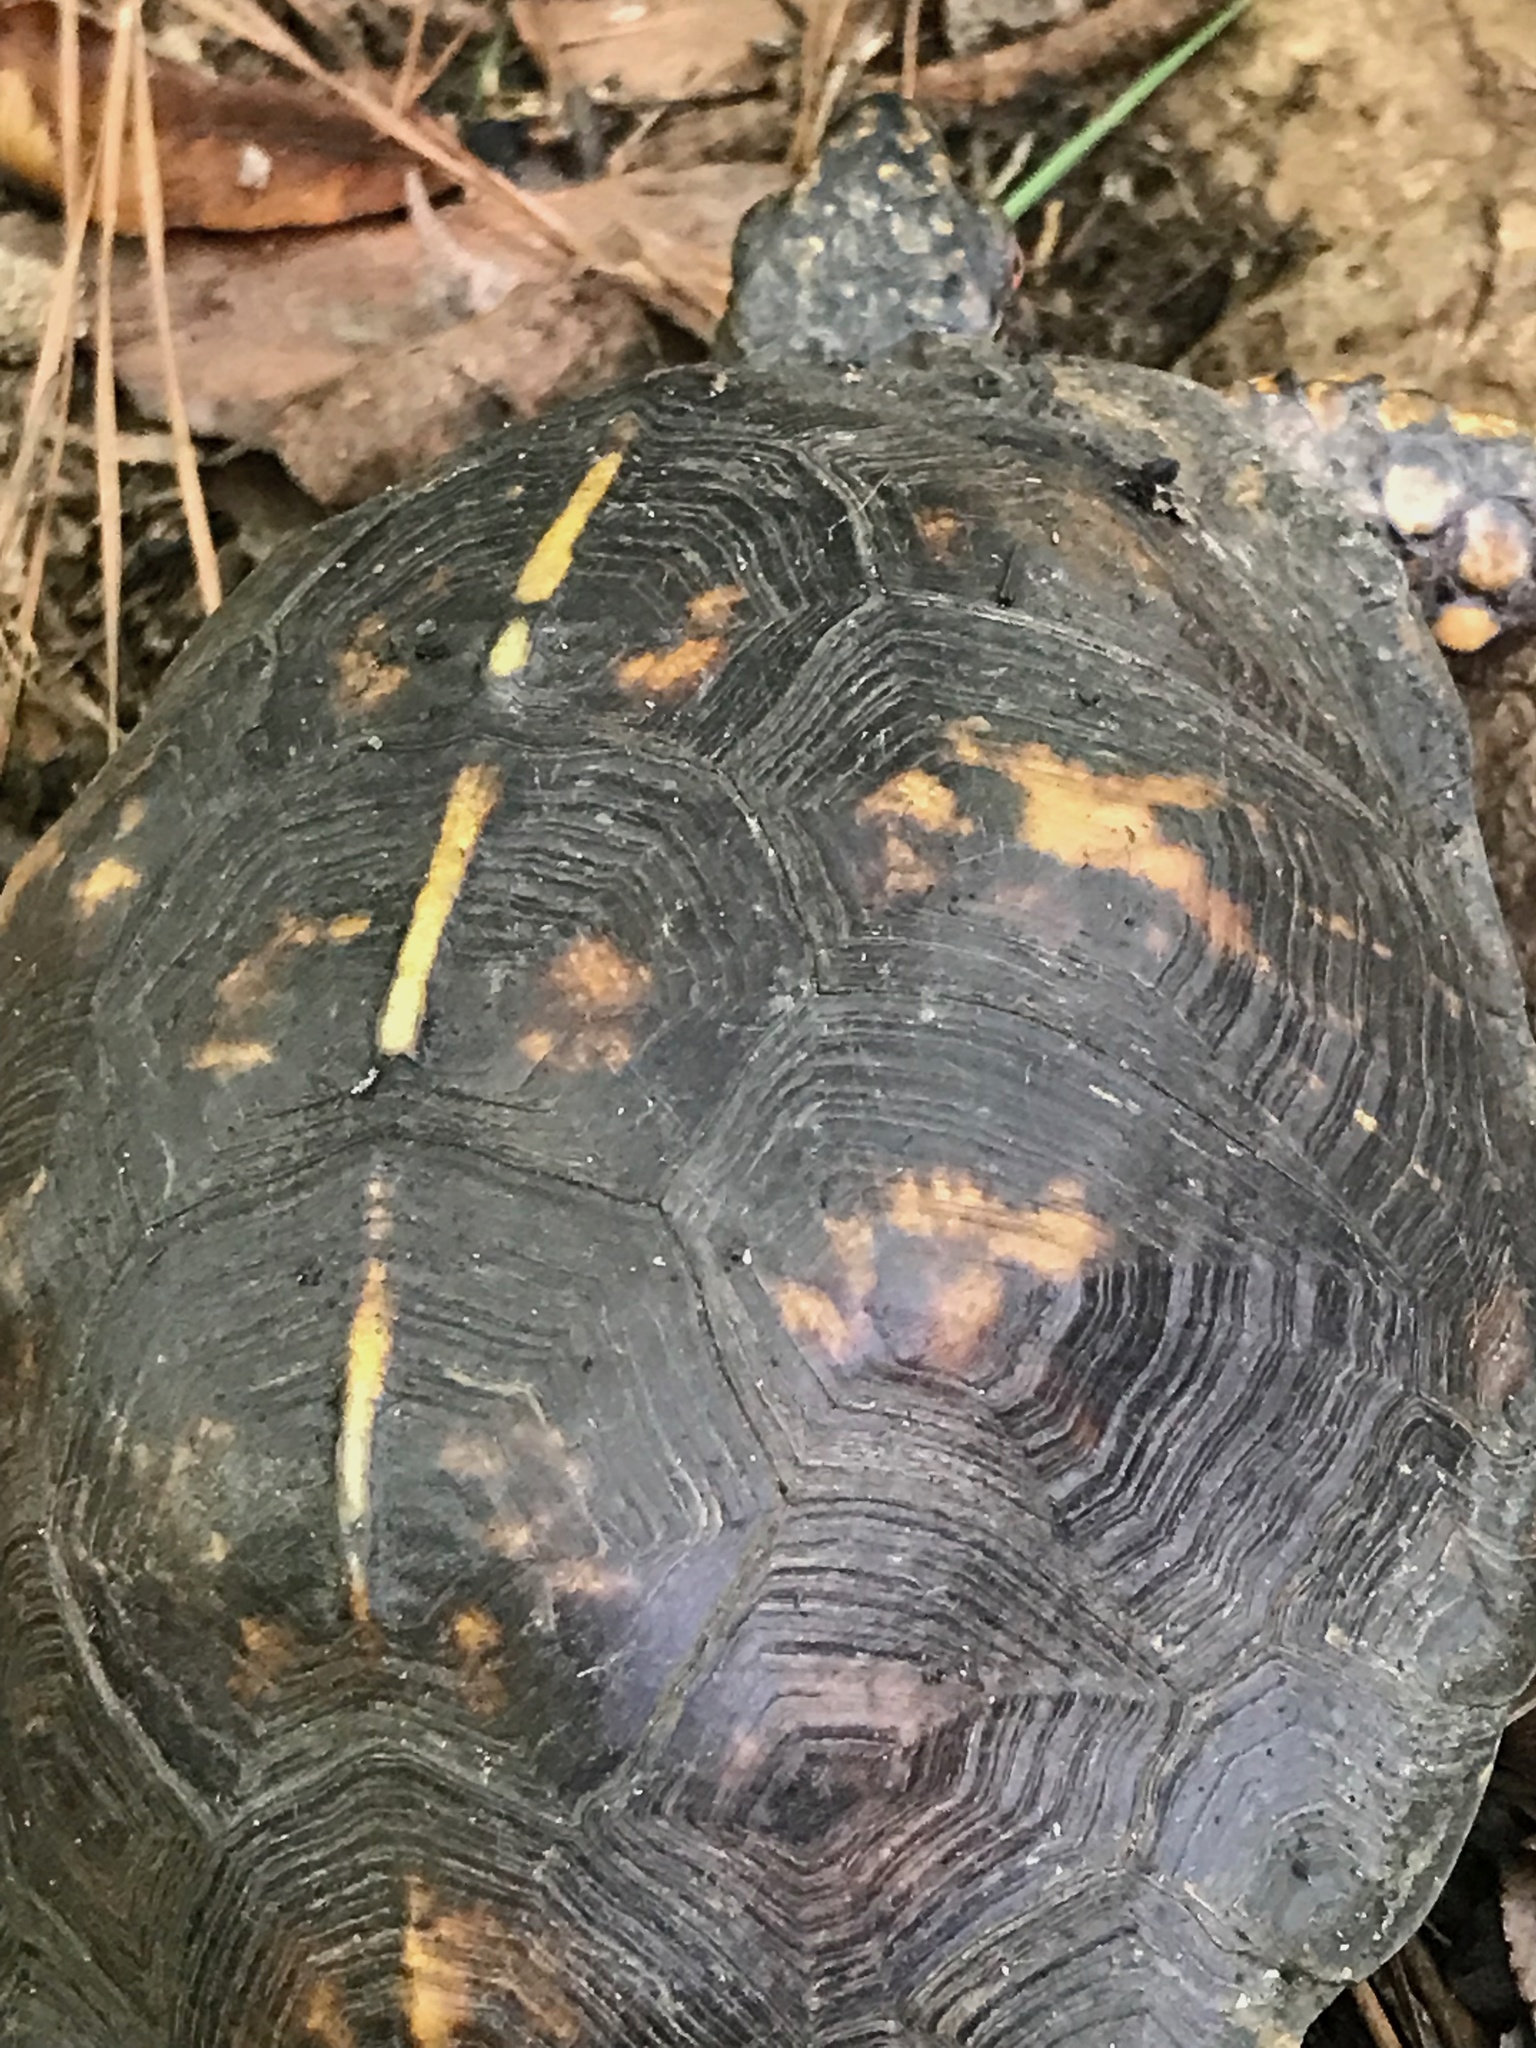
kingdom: Animalia
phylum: Chordata
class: Testudines
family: Emydidae
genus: Terrapene
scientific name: Terrapene carolina
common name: Common box turtle
